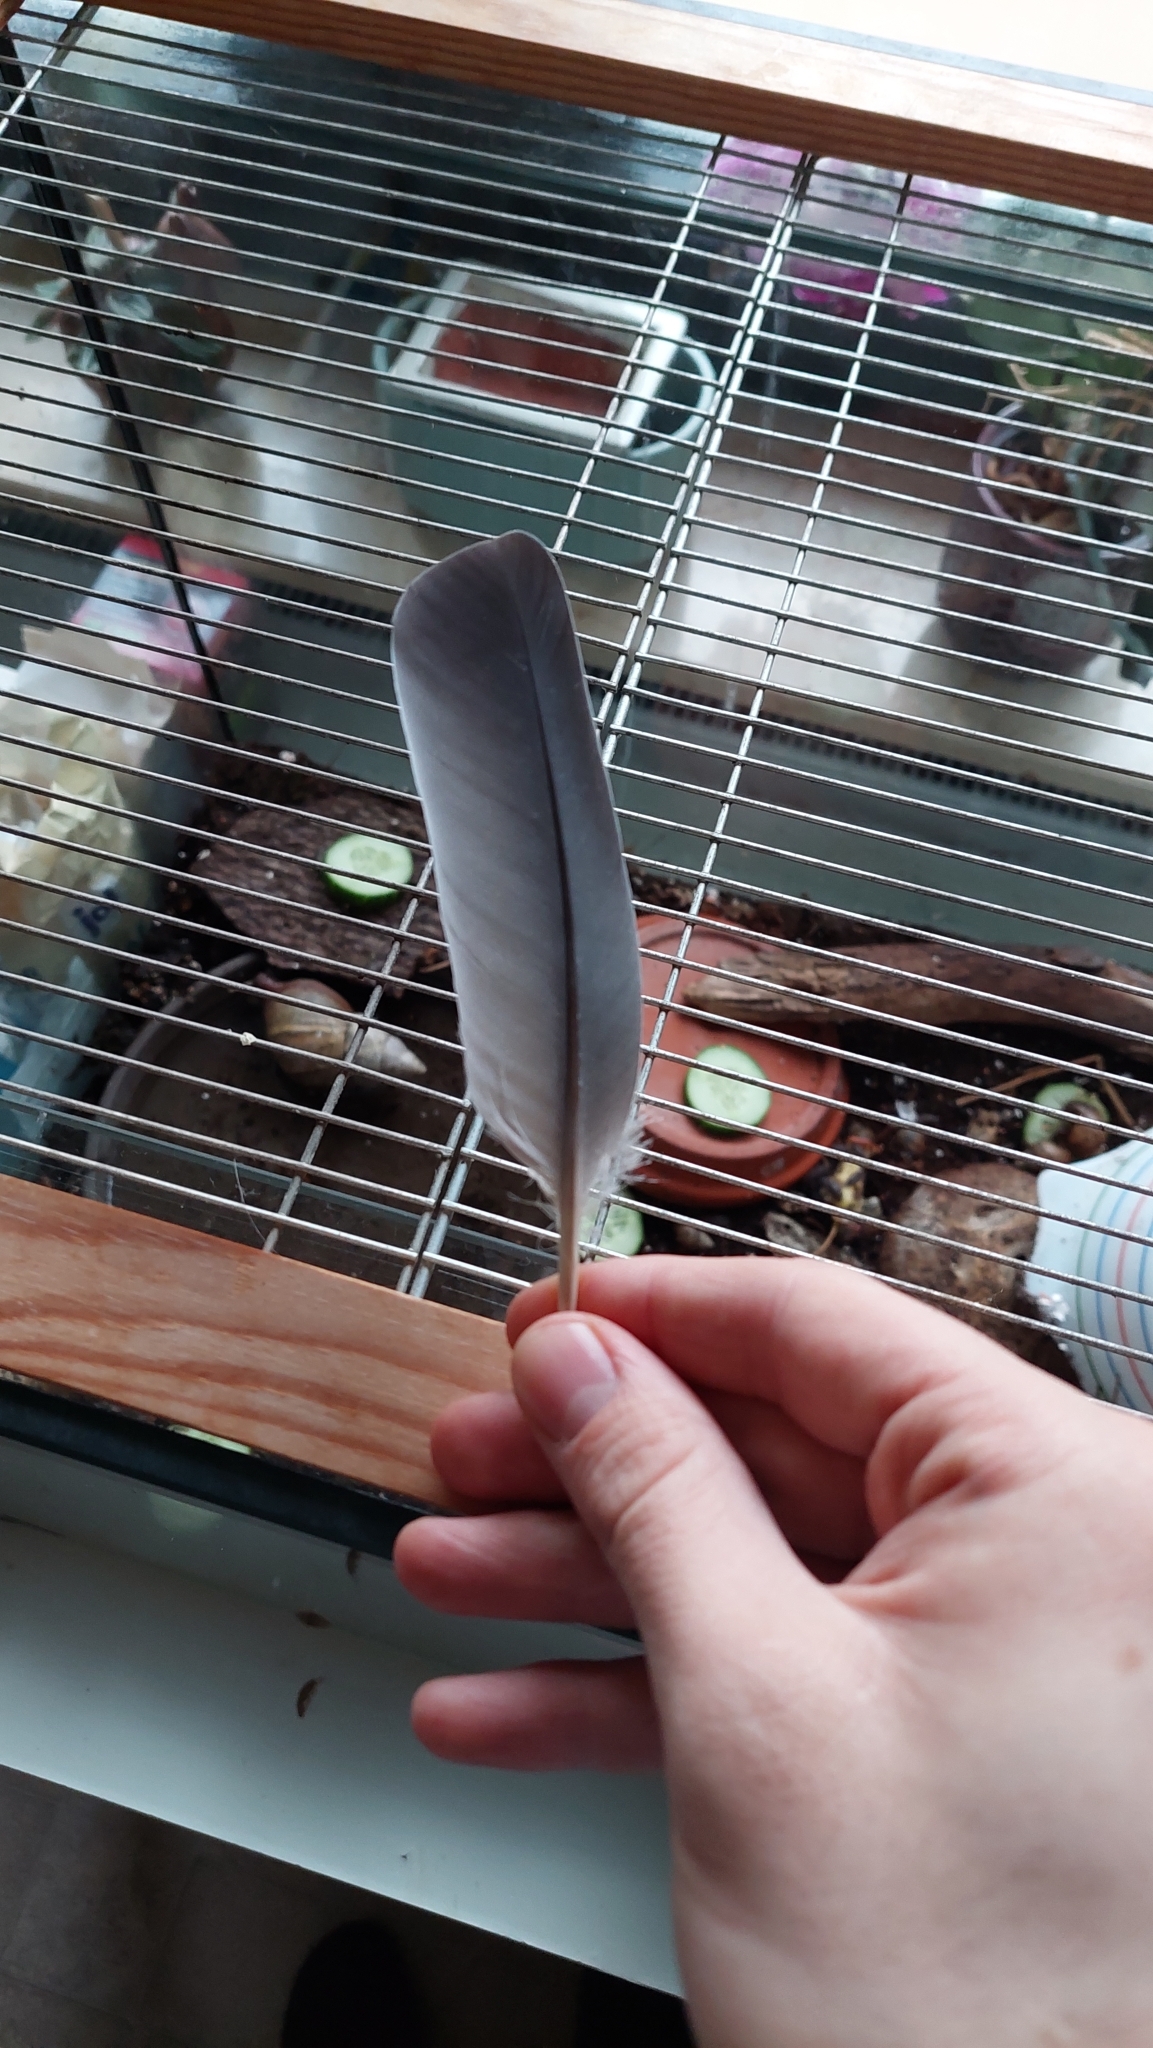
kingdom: Animalia
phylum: Chordata
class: Aves
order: Columbiformes
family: Columbidae
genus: Columba
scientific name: Columba livia
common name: Rock pigeon
